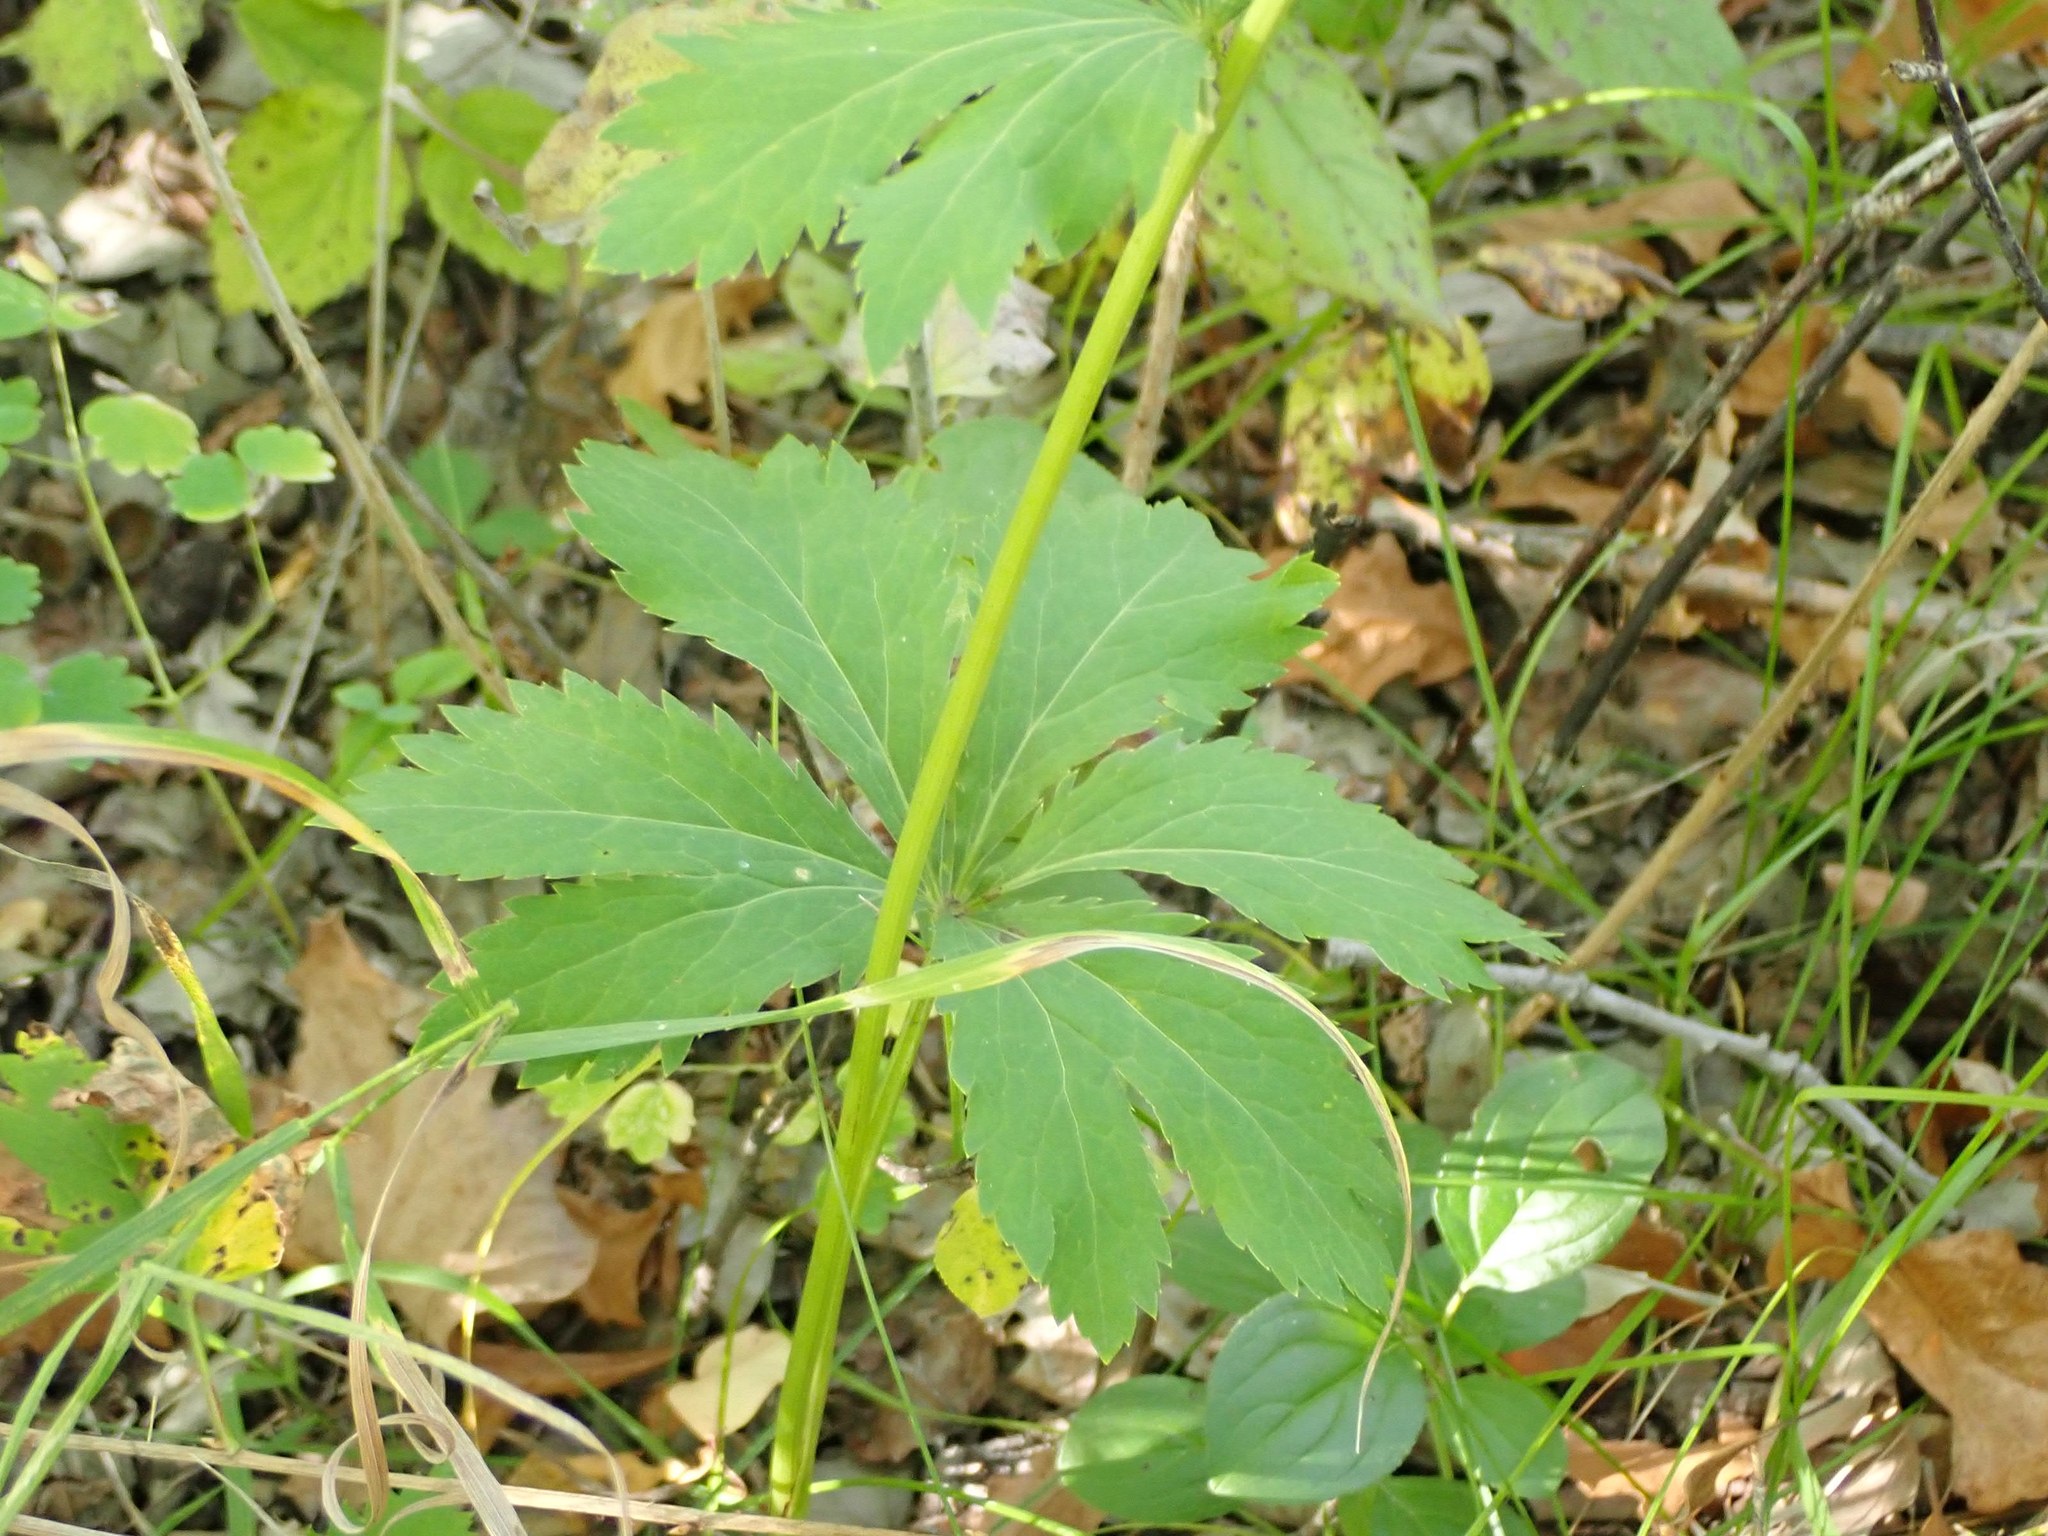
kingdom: Plantae
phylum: Tracheophyta
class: Magnoliopsida
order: Apiales
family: Apiaceae
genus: Sanicula
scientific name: Sanicula marilandica
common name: Black snakeroot
